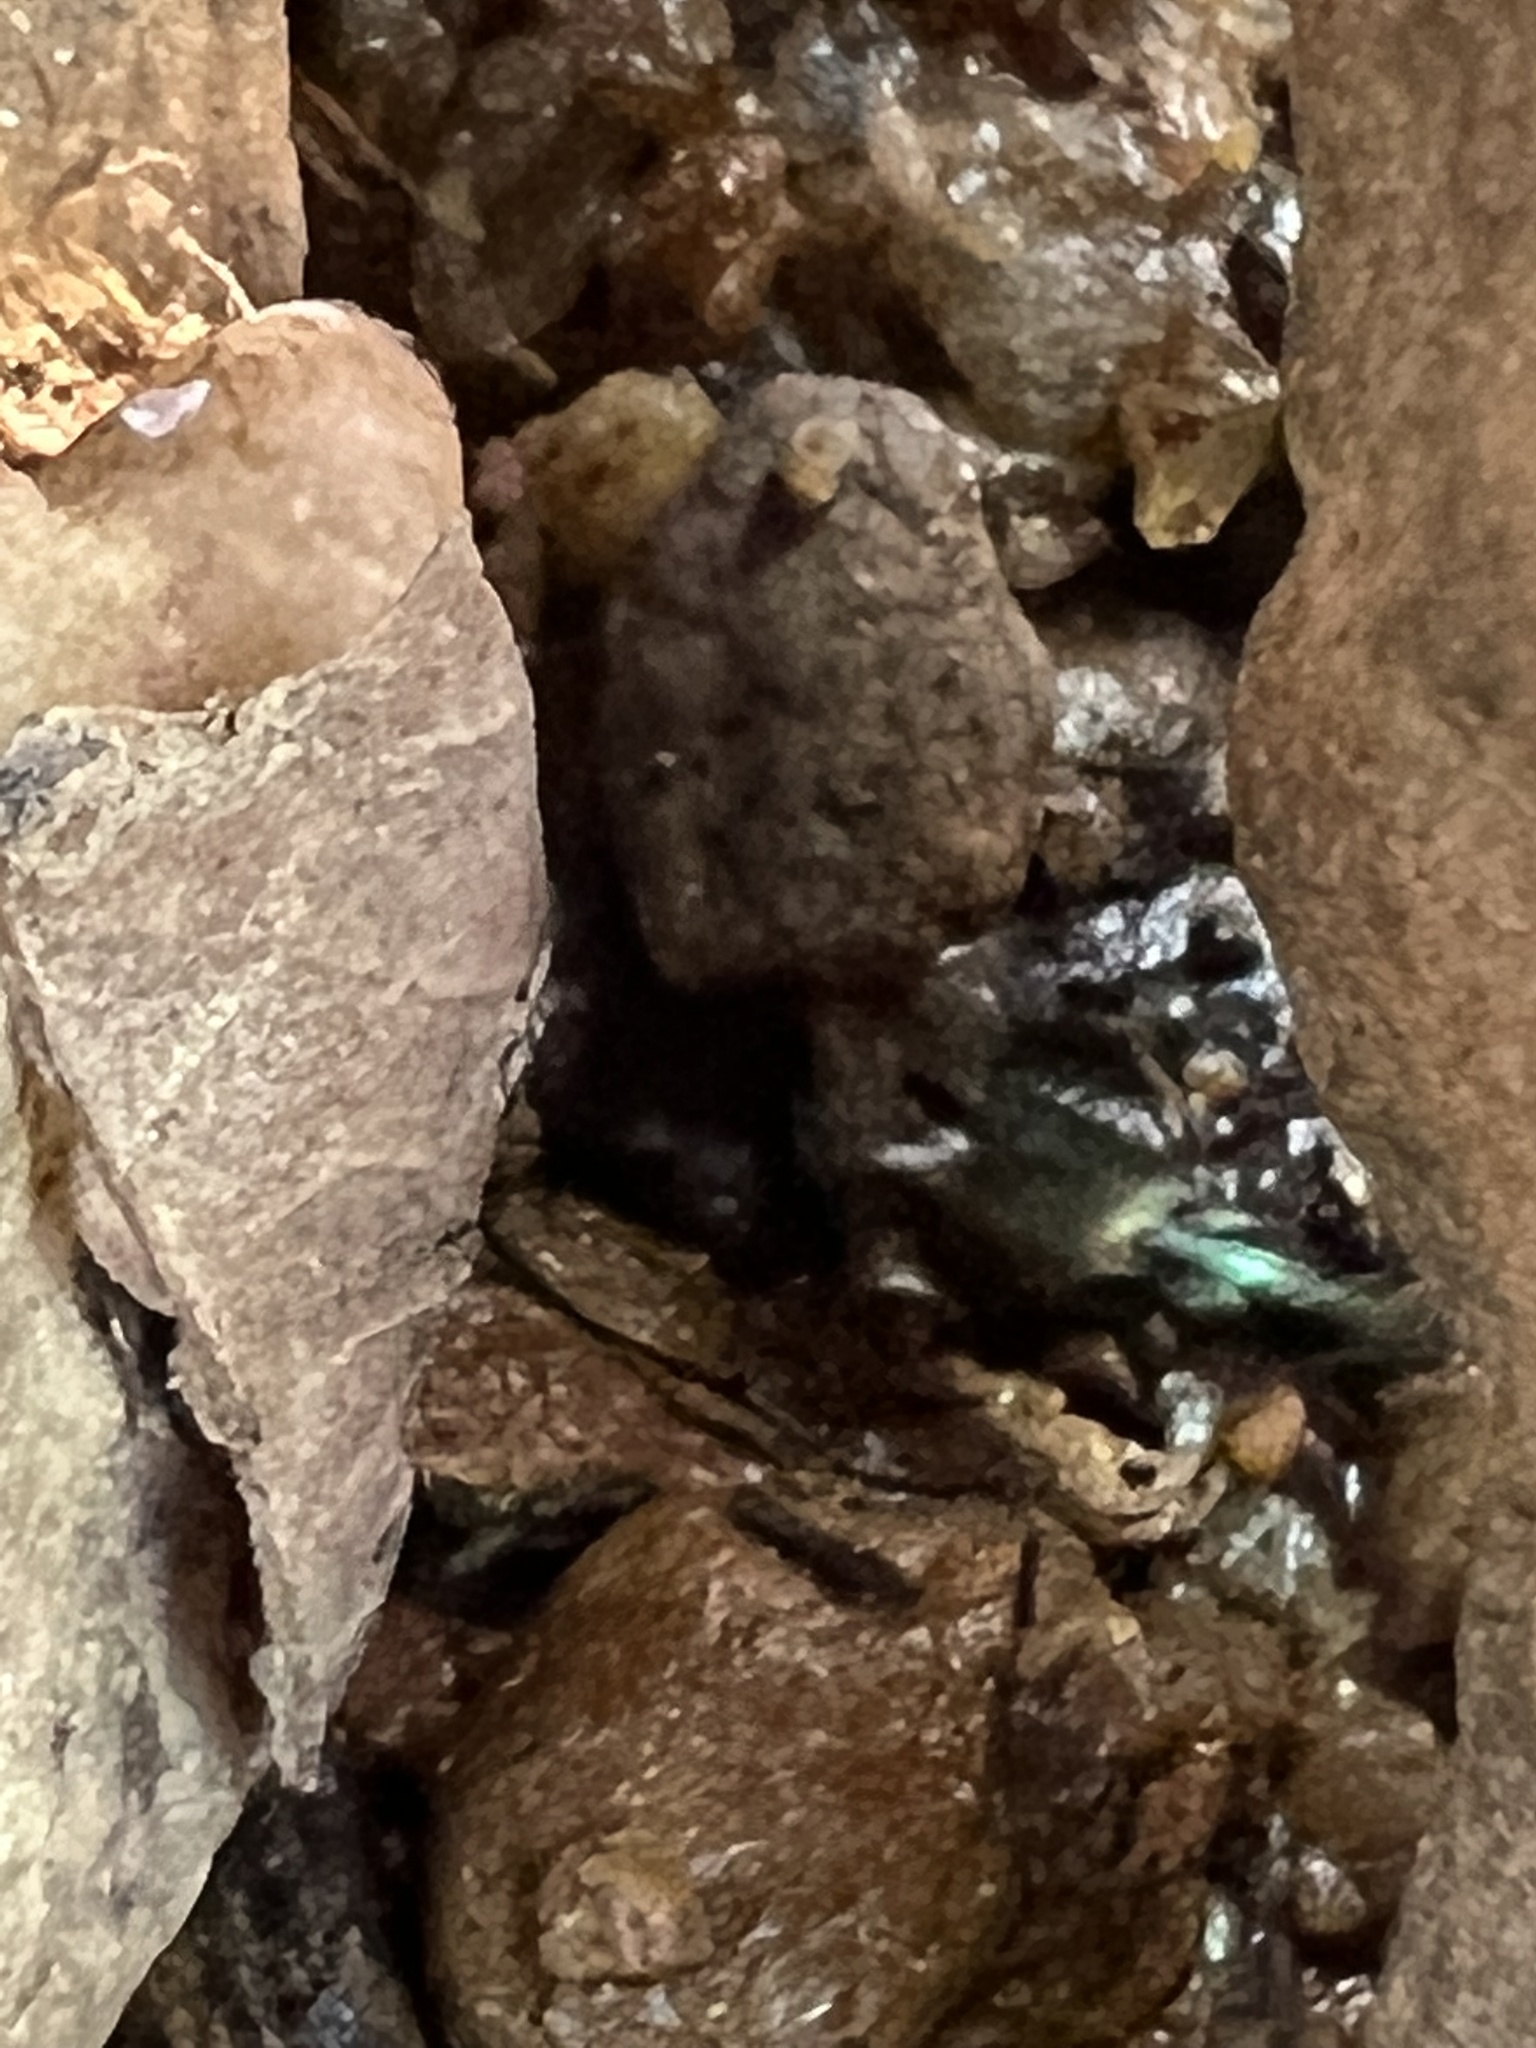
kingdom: Animalia
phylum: Arthropoda
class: Insecta
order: Coleoptera
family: Carabidae
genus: Agonum
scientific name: Agonum extensicolle
